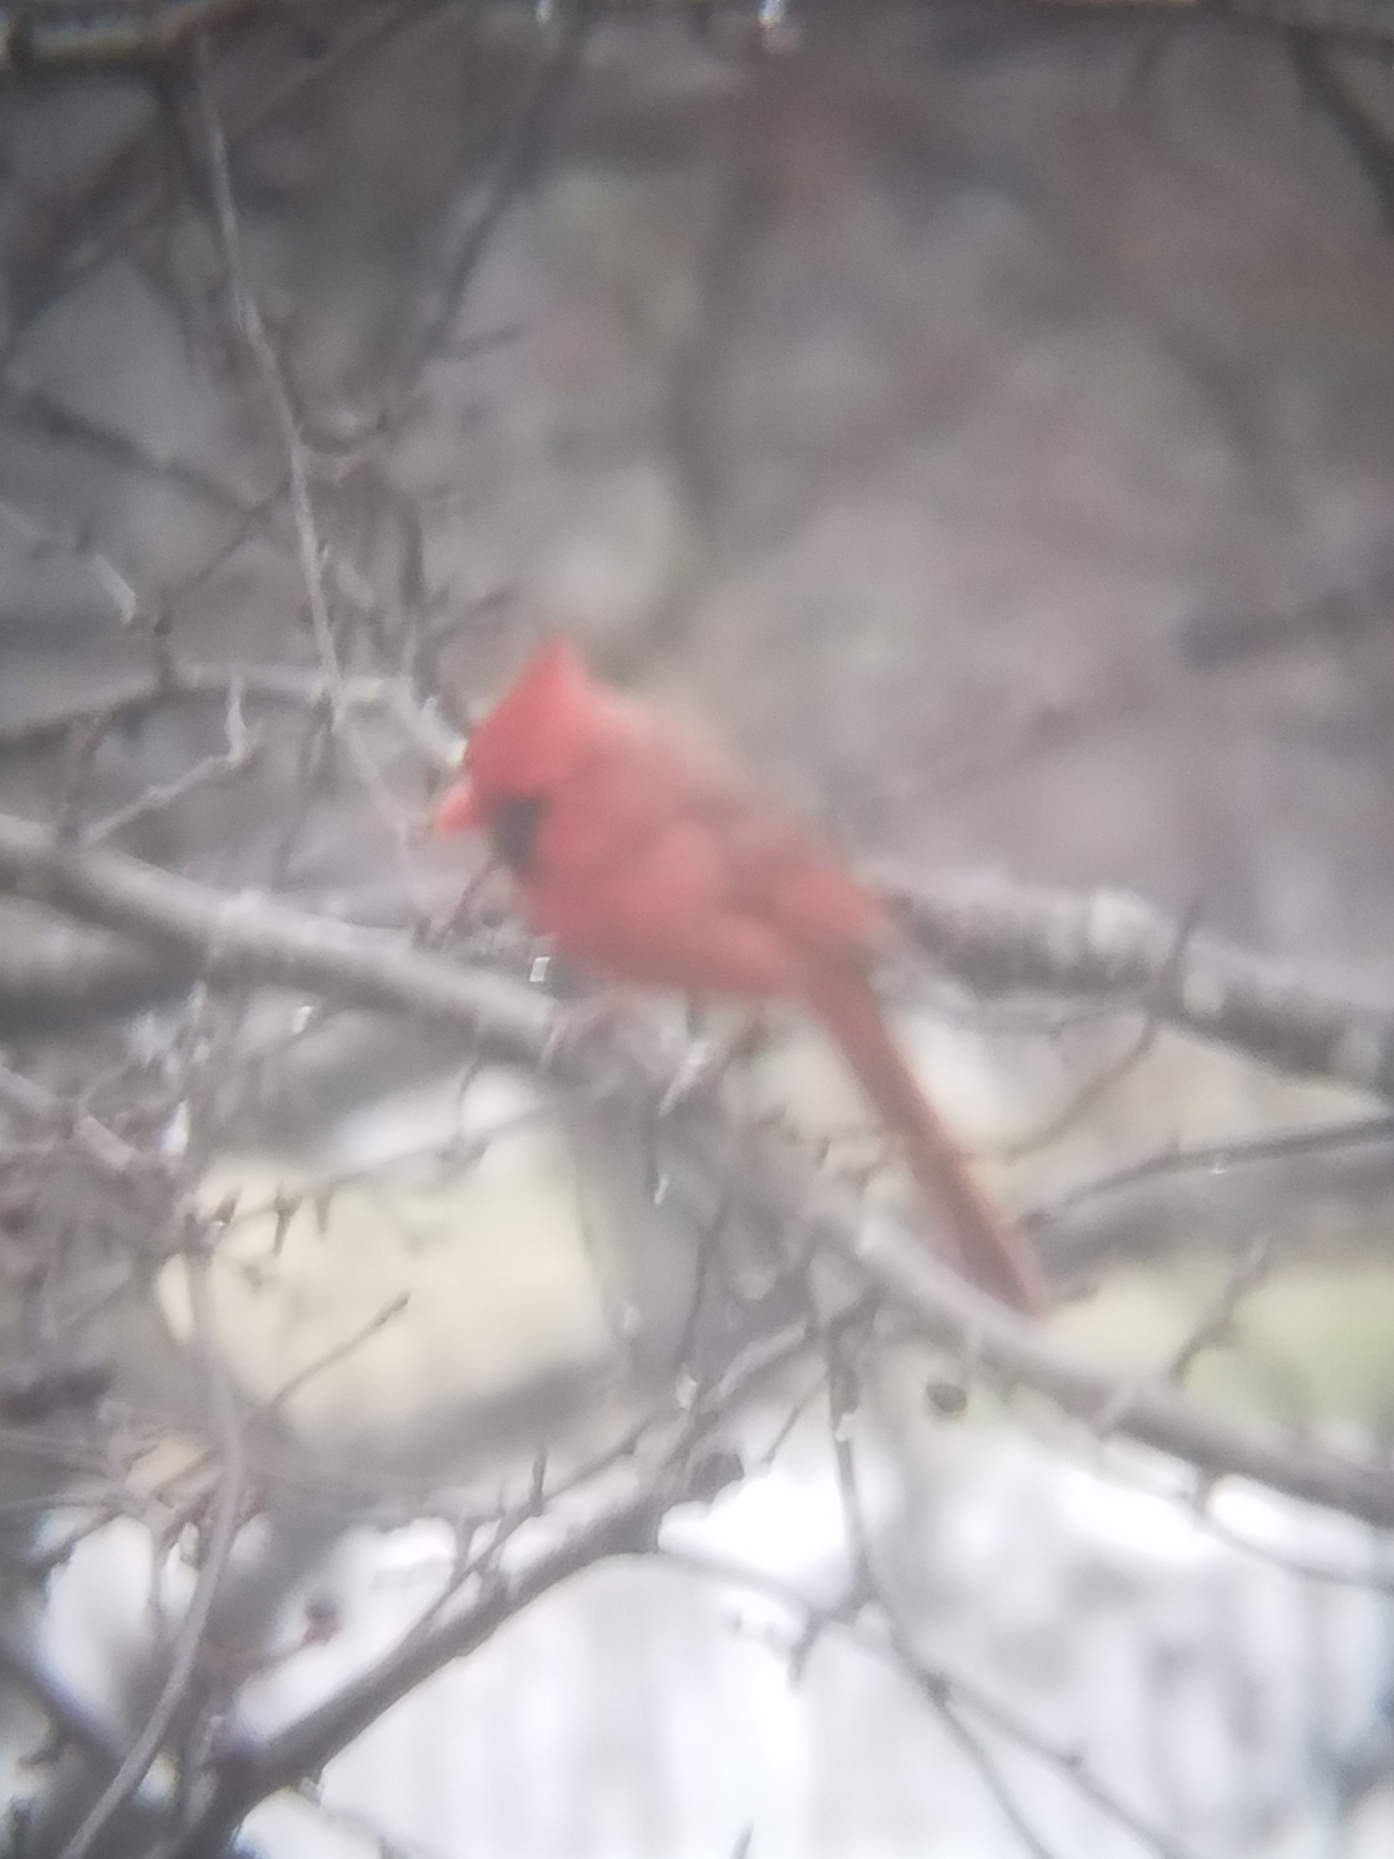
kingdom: Animalia
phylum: Chordata
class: Aves
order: Passeriformes
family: Cardinalidae
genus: Cardinalis
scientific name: Cardinalis cardinalis
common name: Northern cardinal
